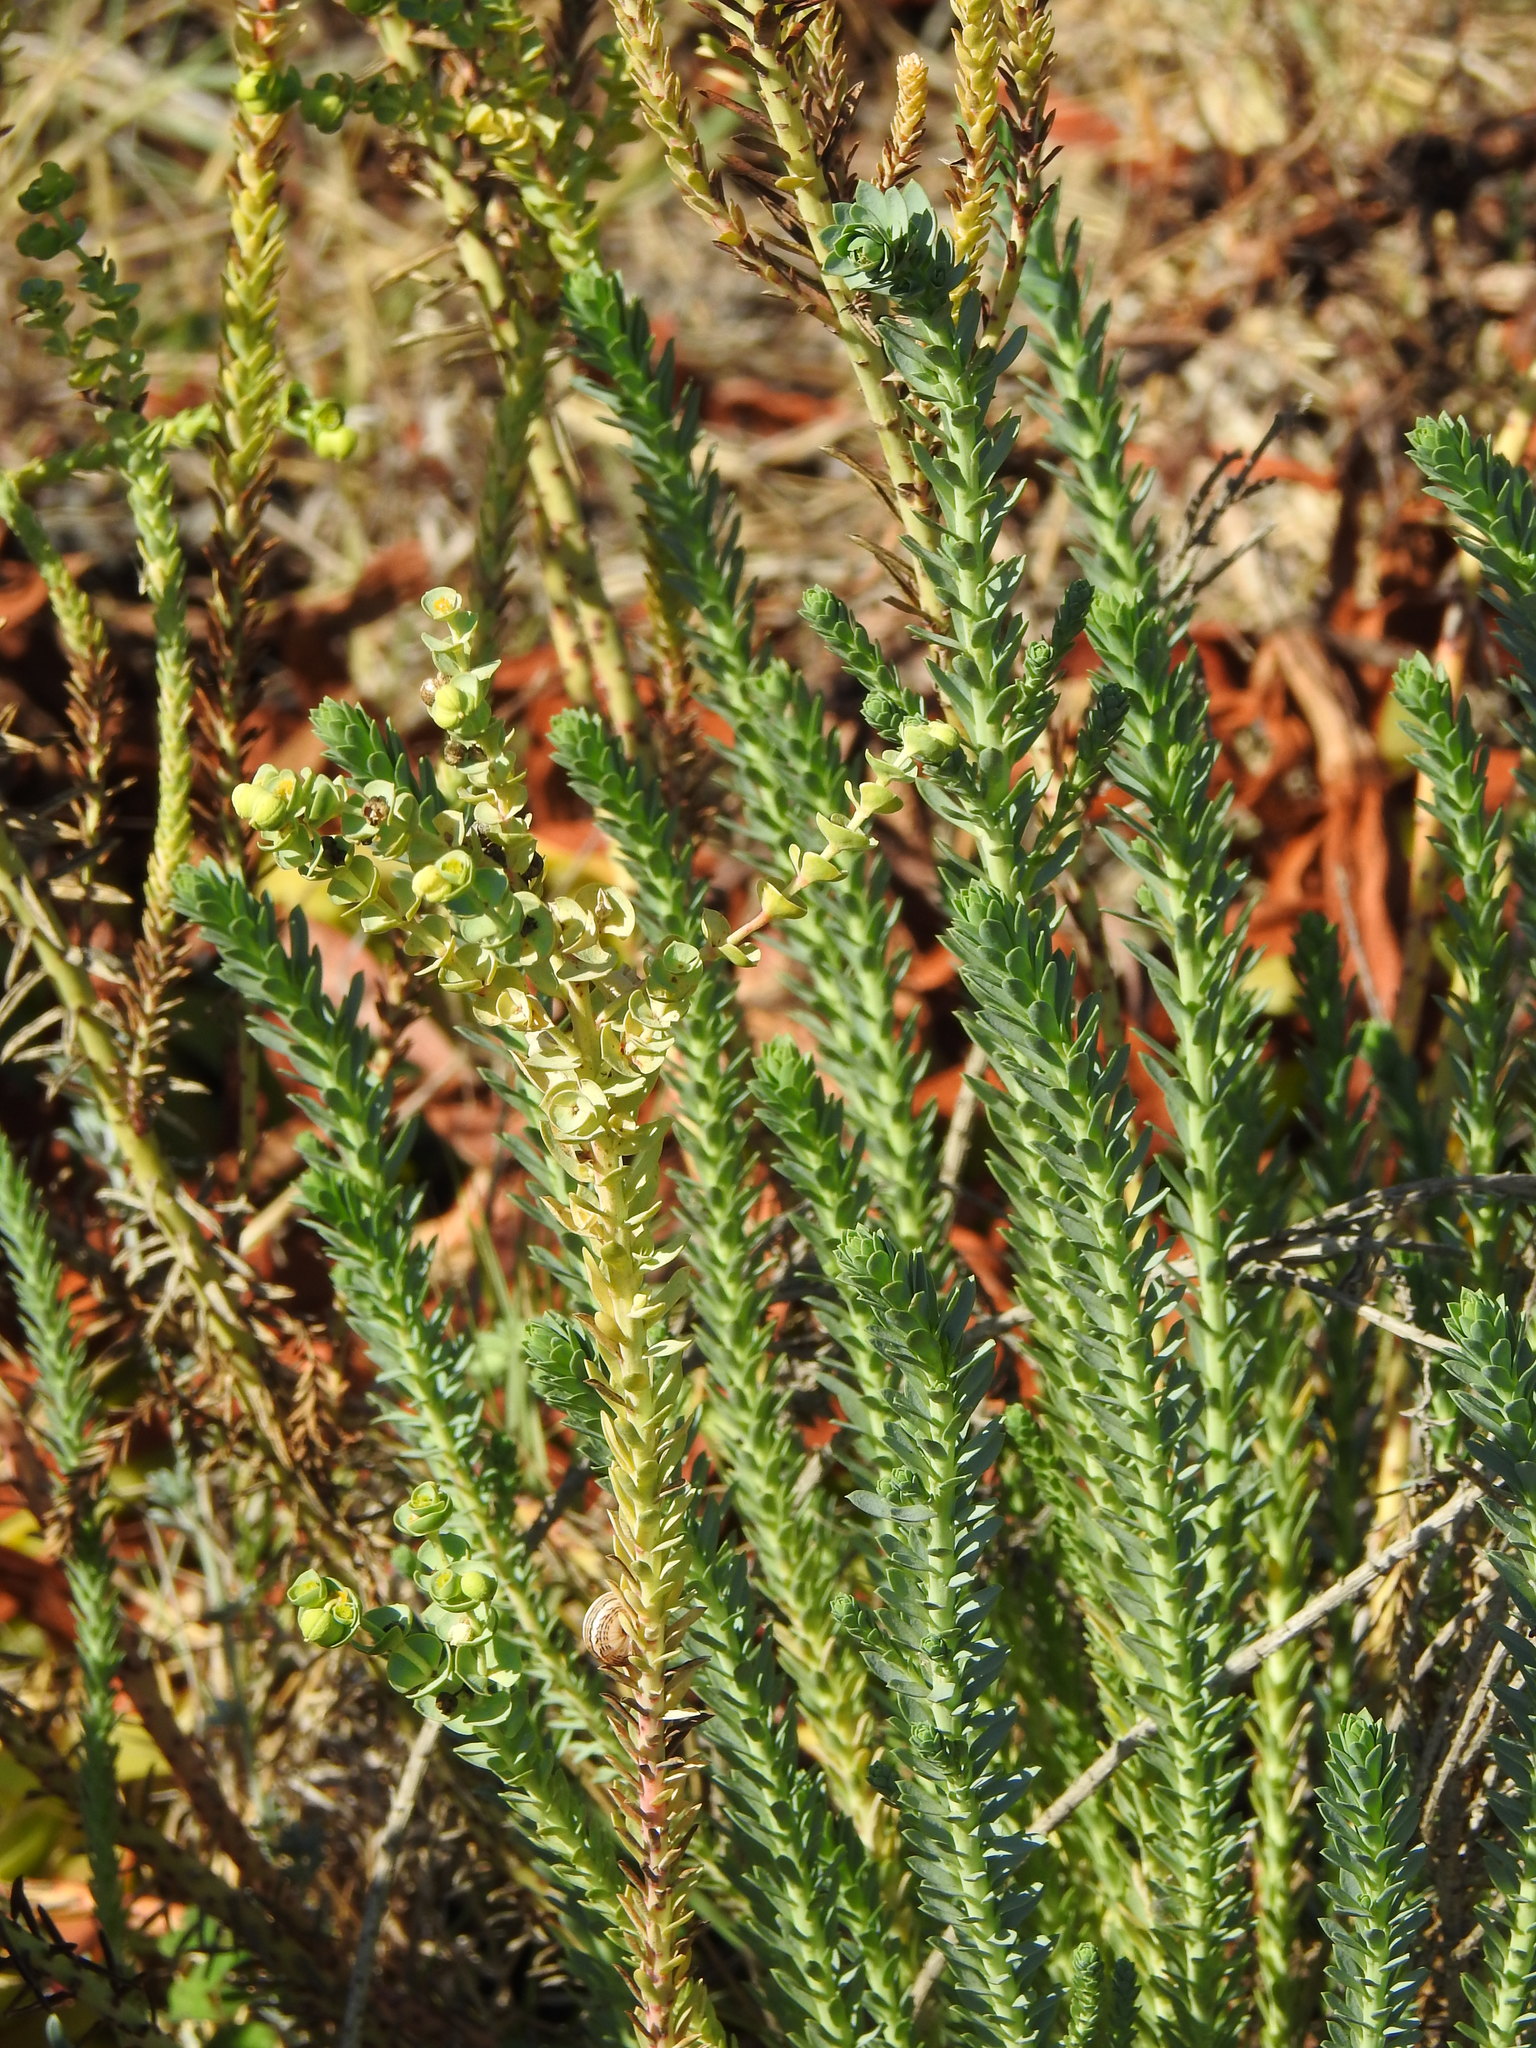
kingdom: Plantae
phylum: Tracheophyta
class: Magnoliopsida
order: Malpighiales
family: Euphorbiaceae
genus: Euphorbia
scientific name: Euphorbia paralias
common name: Sea spurge
